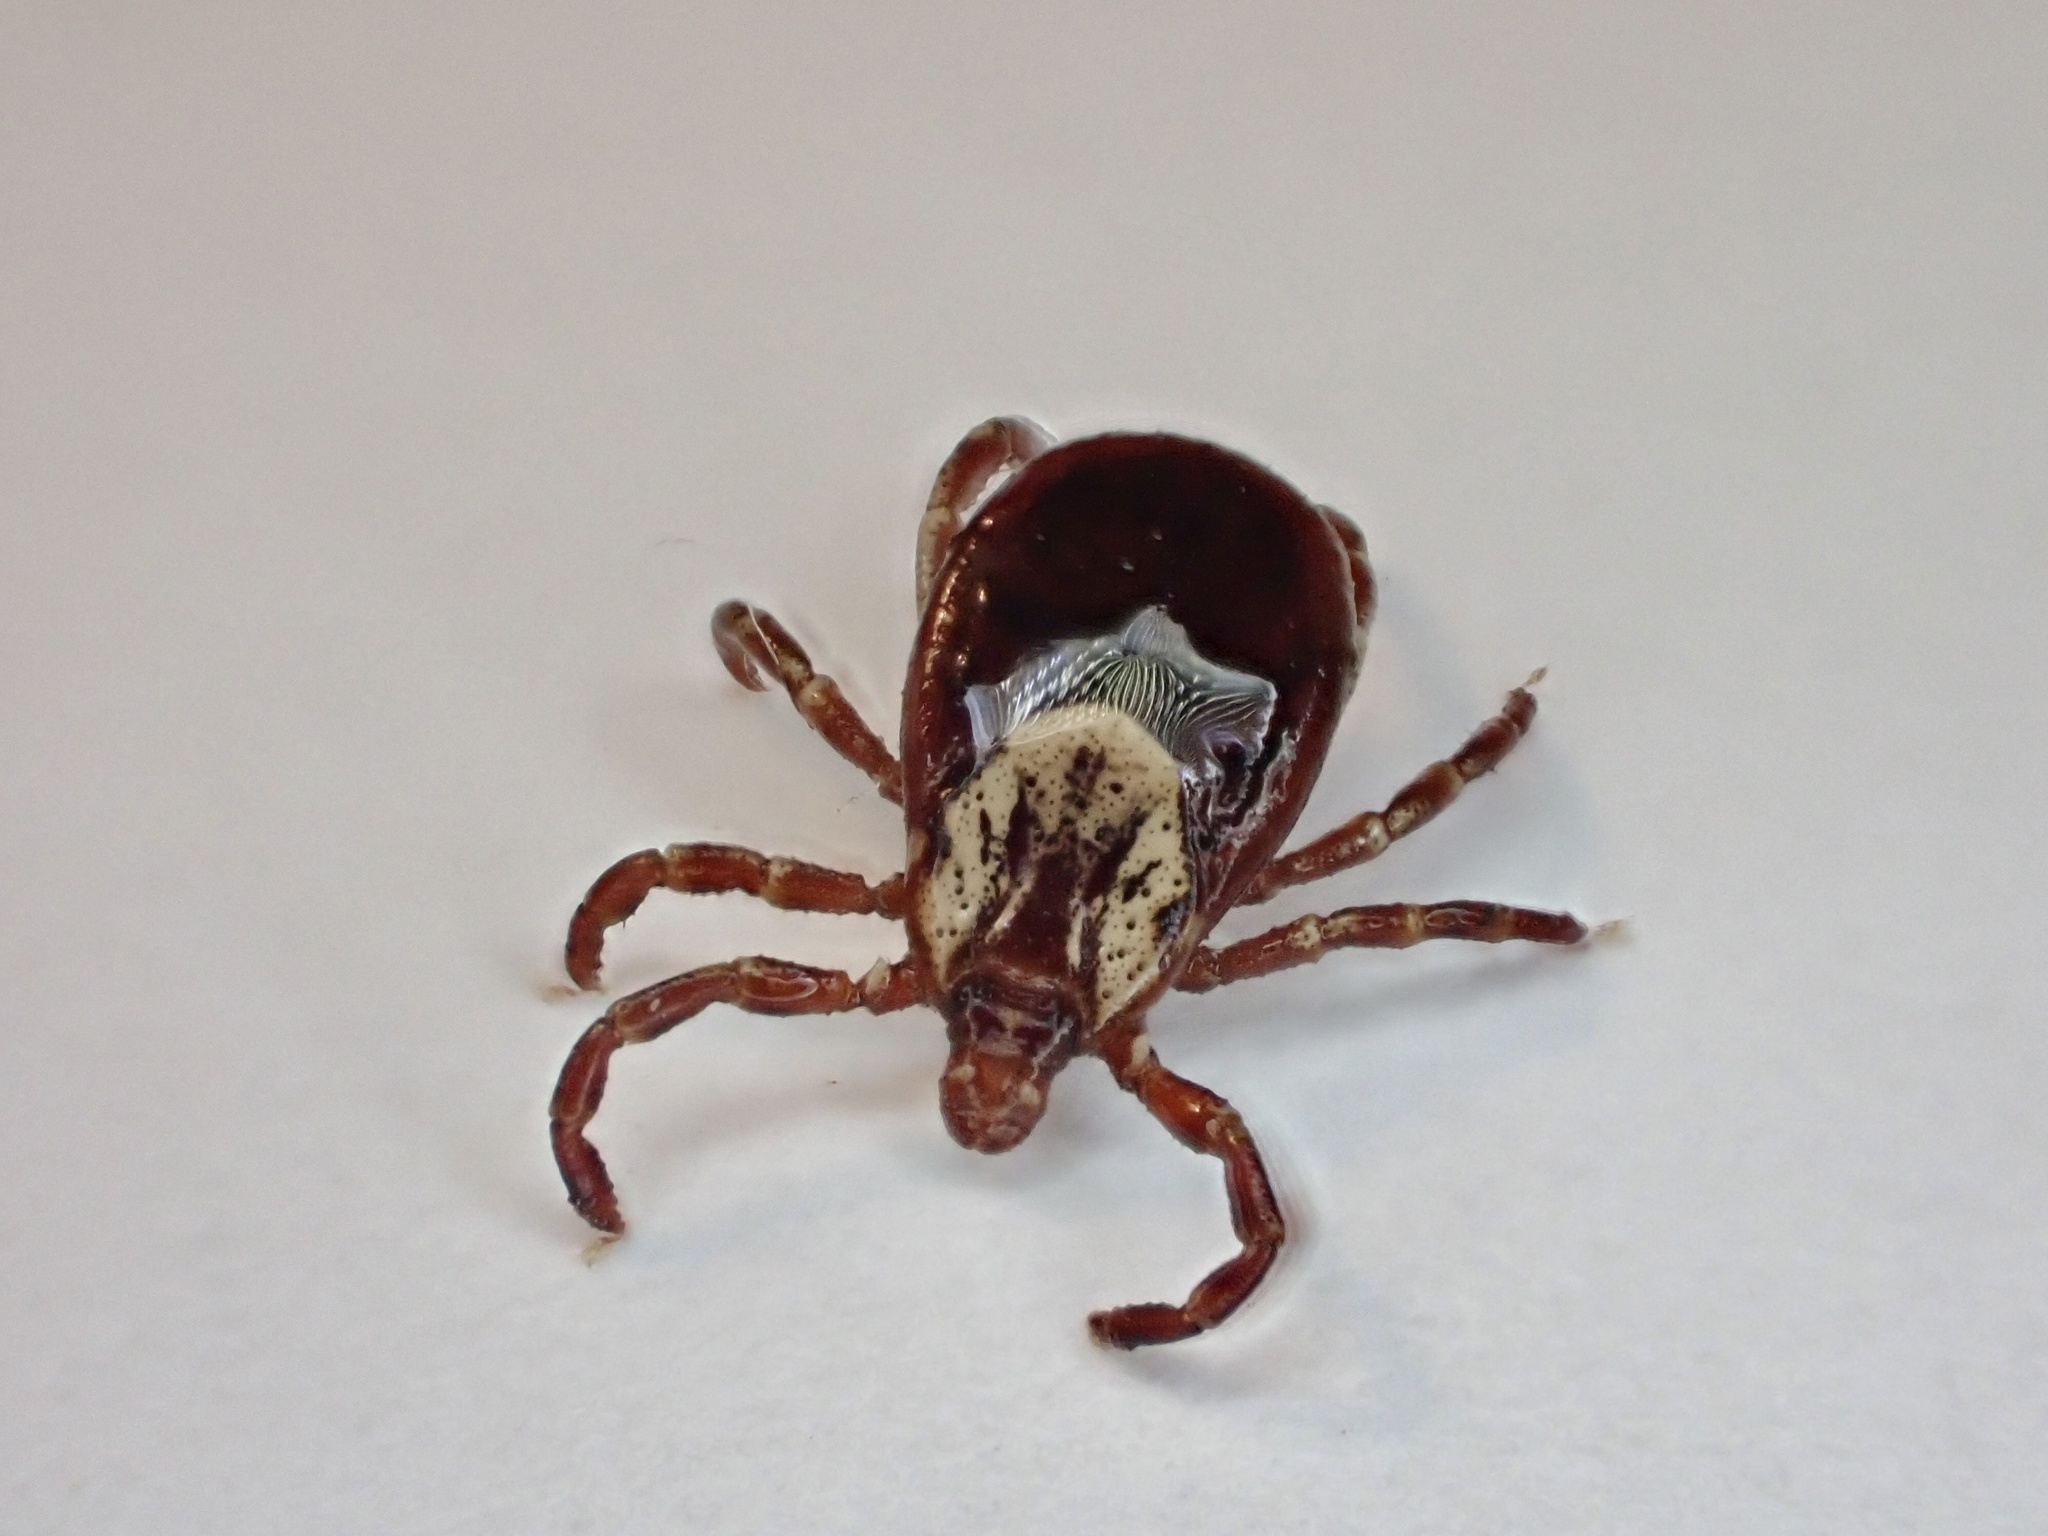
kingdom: Animalia
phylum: Arthropoda
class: Arachnida
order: Ixodida
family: Ixodidae
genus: Dermacentor
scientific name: Dermacentor variabilis
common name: American dog tick
